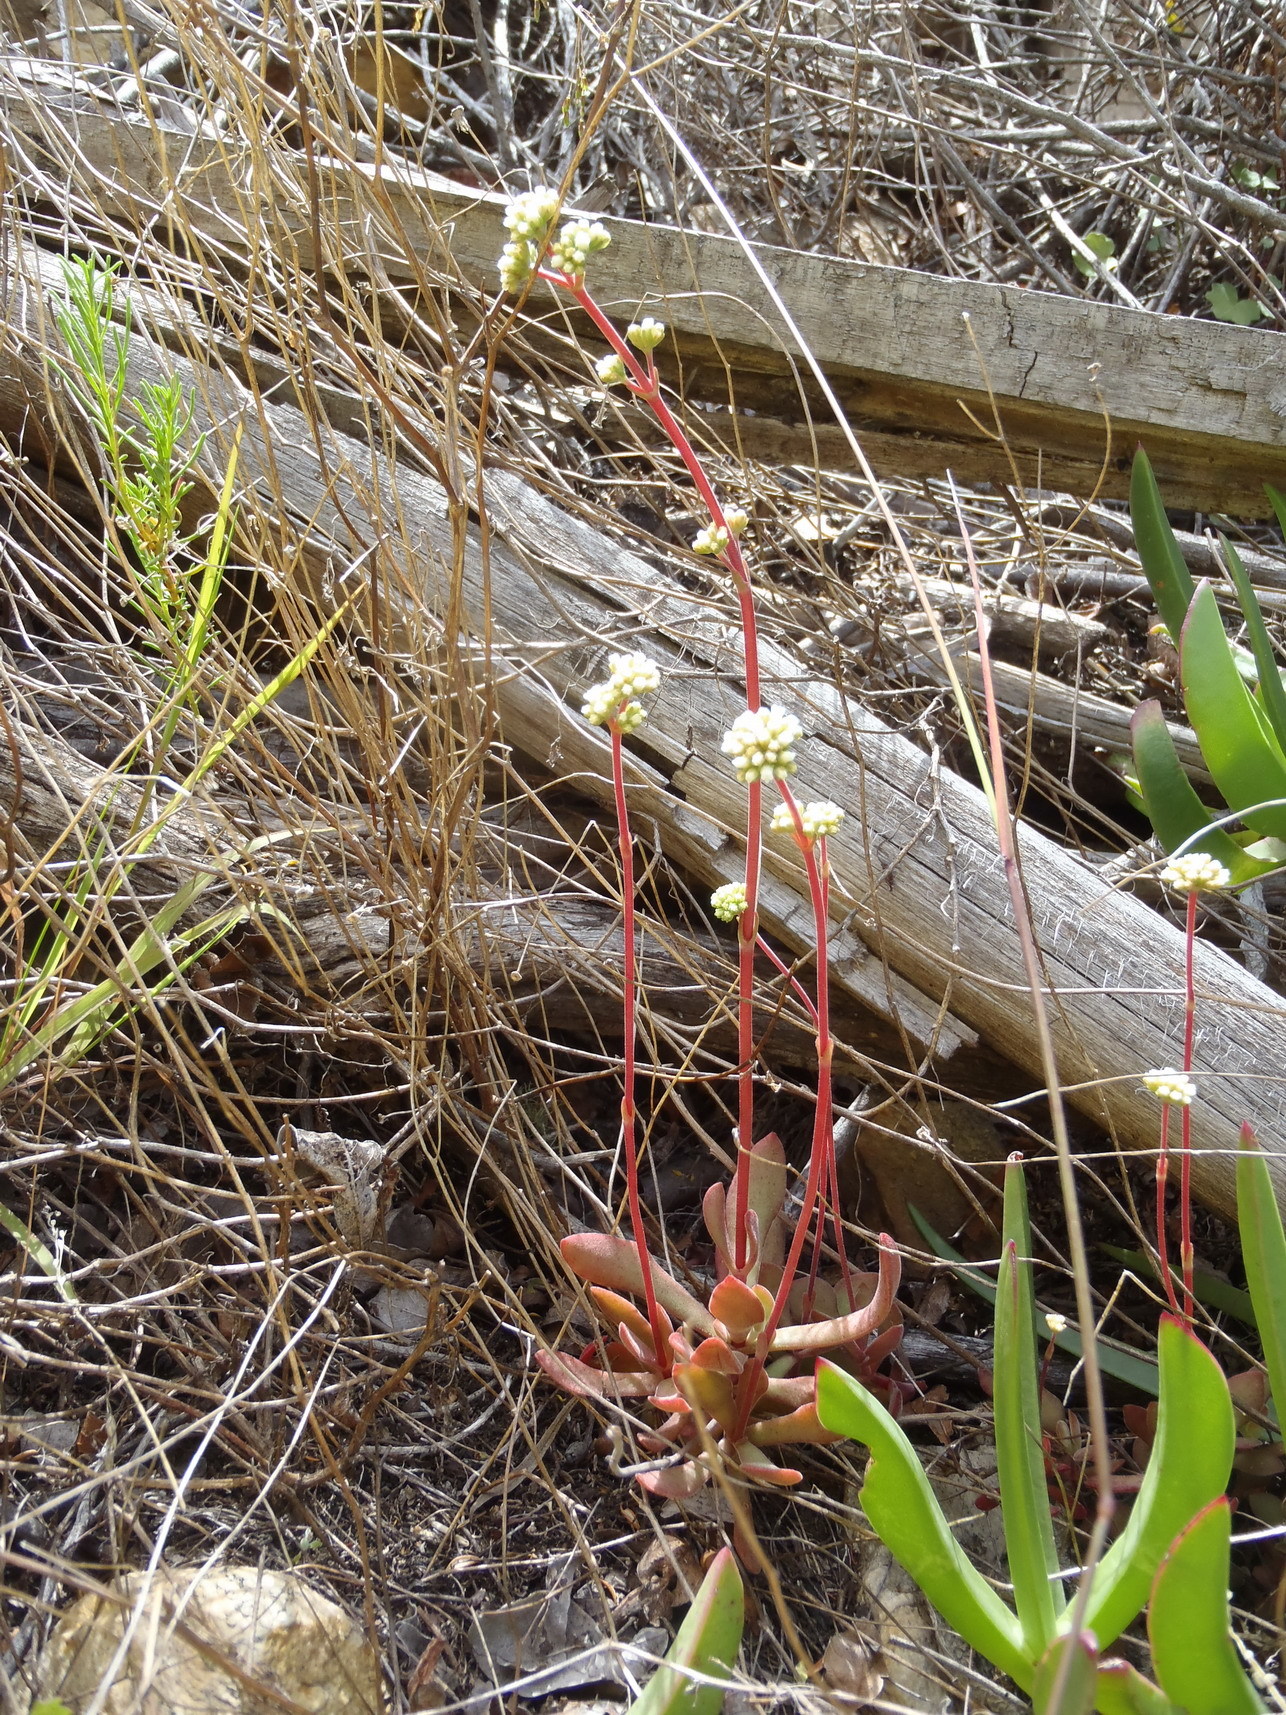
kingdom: Plantae
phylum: Tracheophyta
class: Magnoliopsida
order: Saxifragales
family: Crassulaceae
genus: Crassula
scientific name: Crassula pubescens
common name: Jersey pigmyweed
